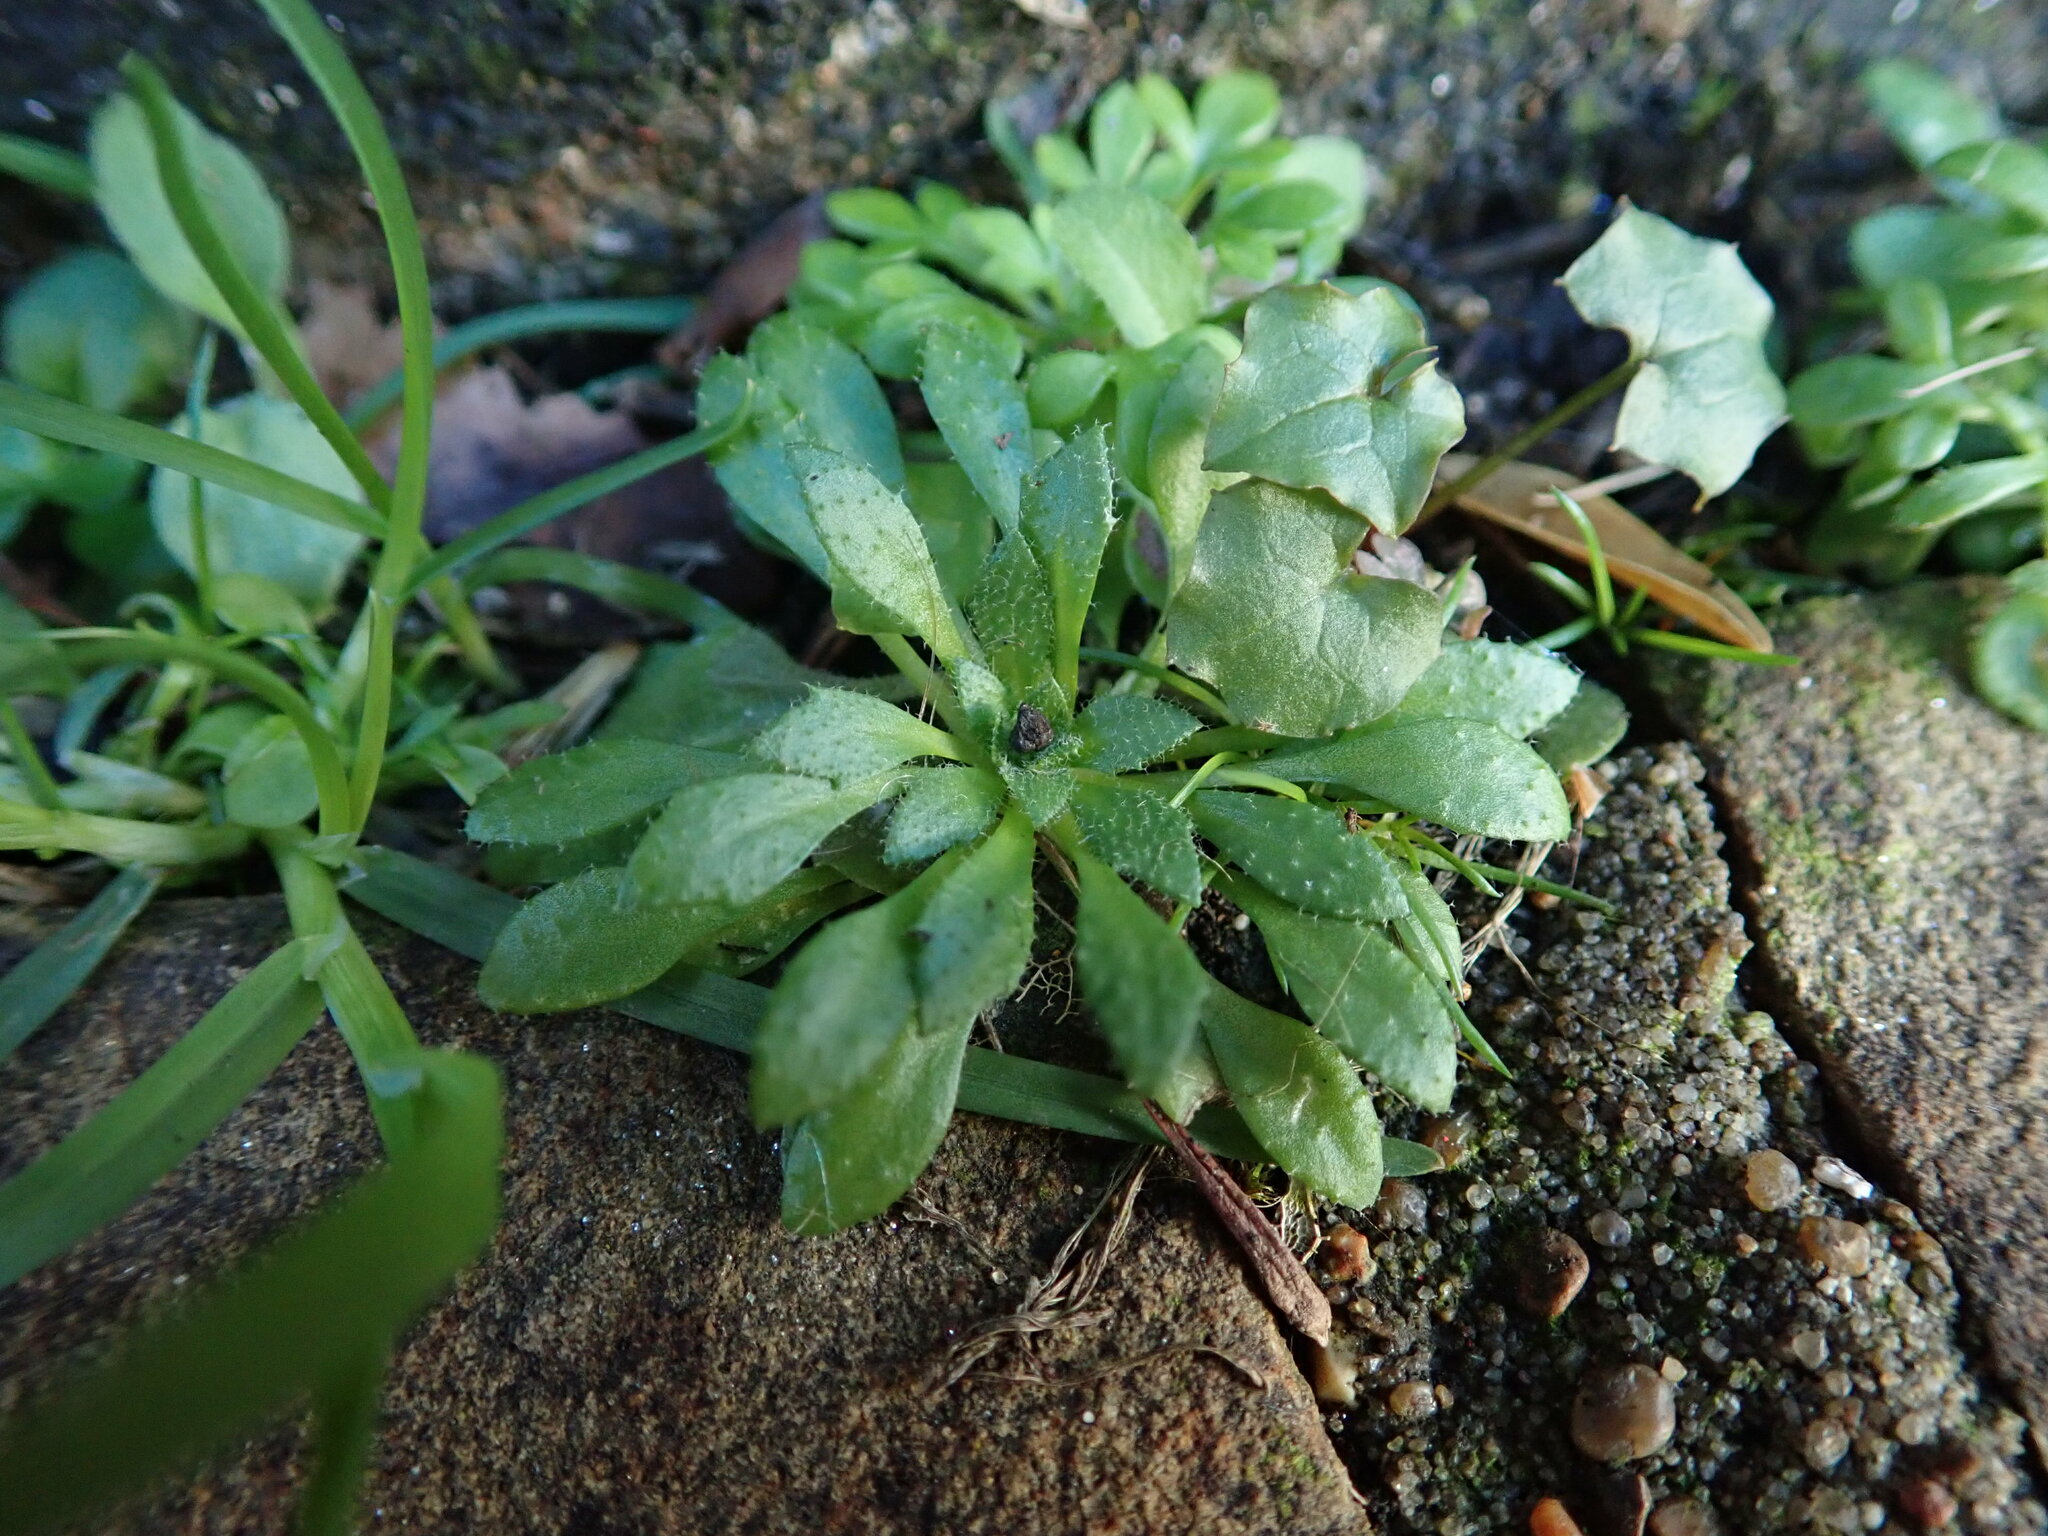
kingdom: Plantae
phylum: Tracheophyta
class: Magnoliopsida
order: Brassicales
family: Brassicaceae
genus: Draba
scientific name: Draba verna
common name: Spring draba
